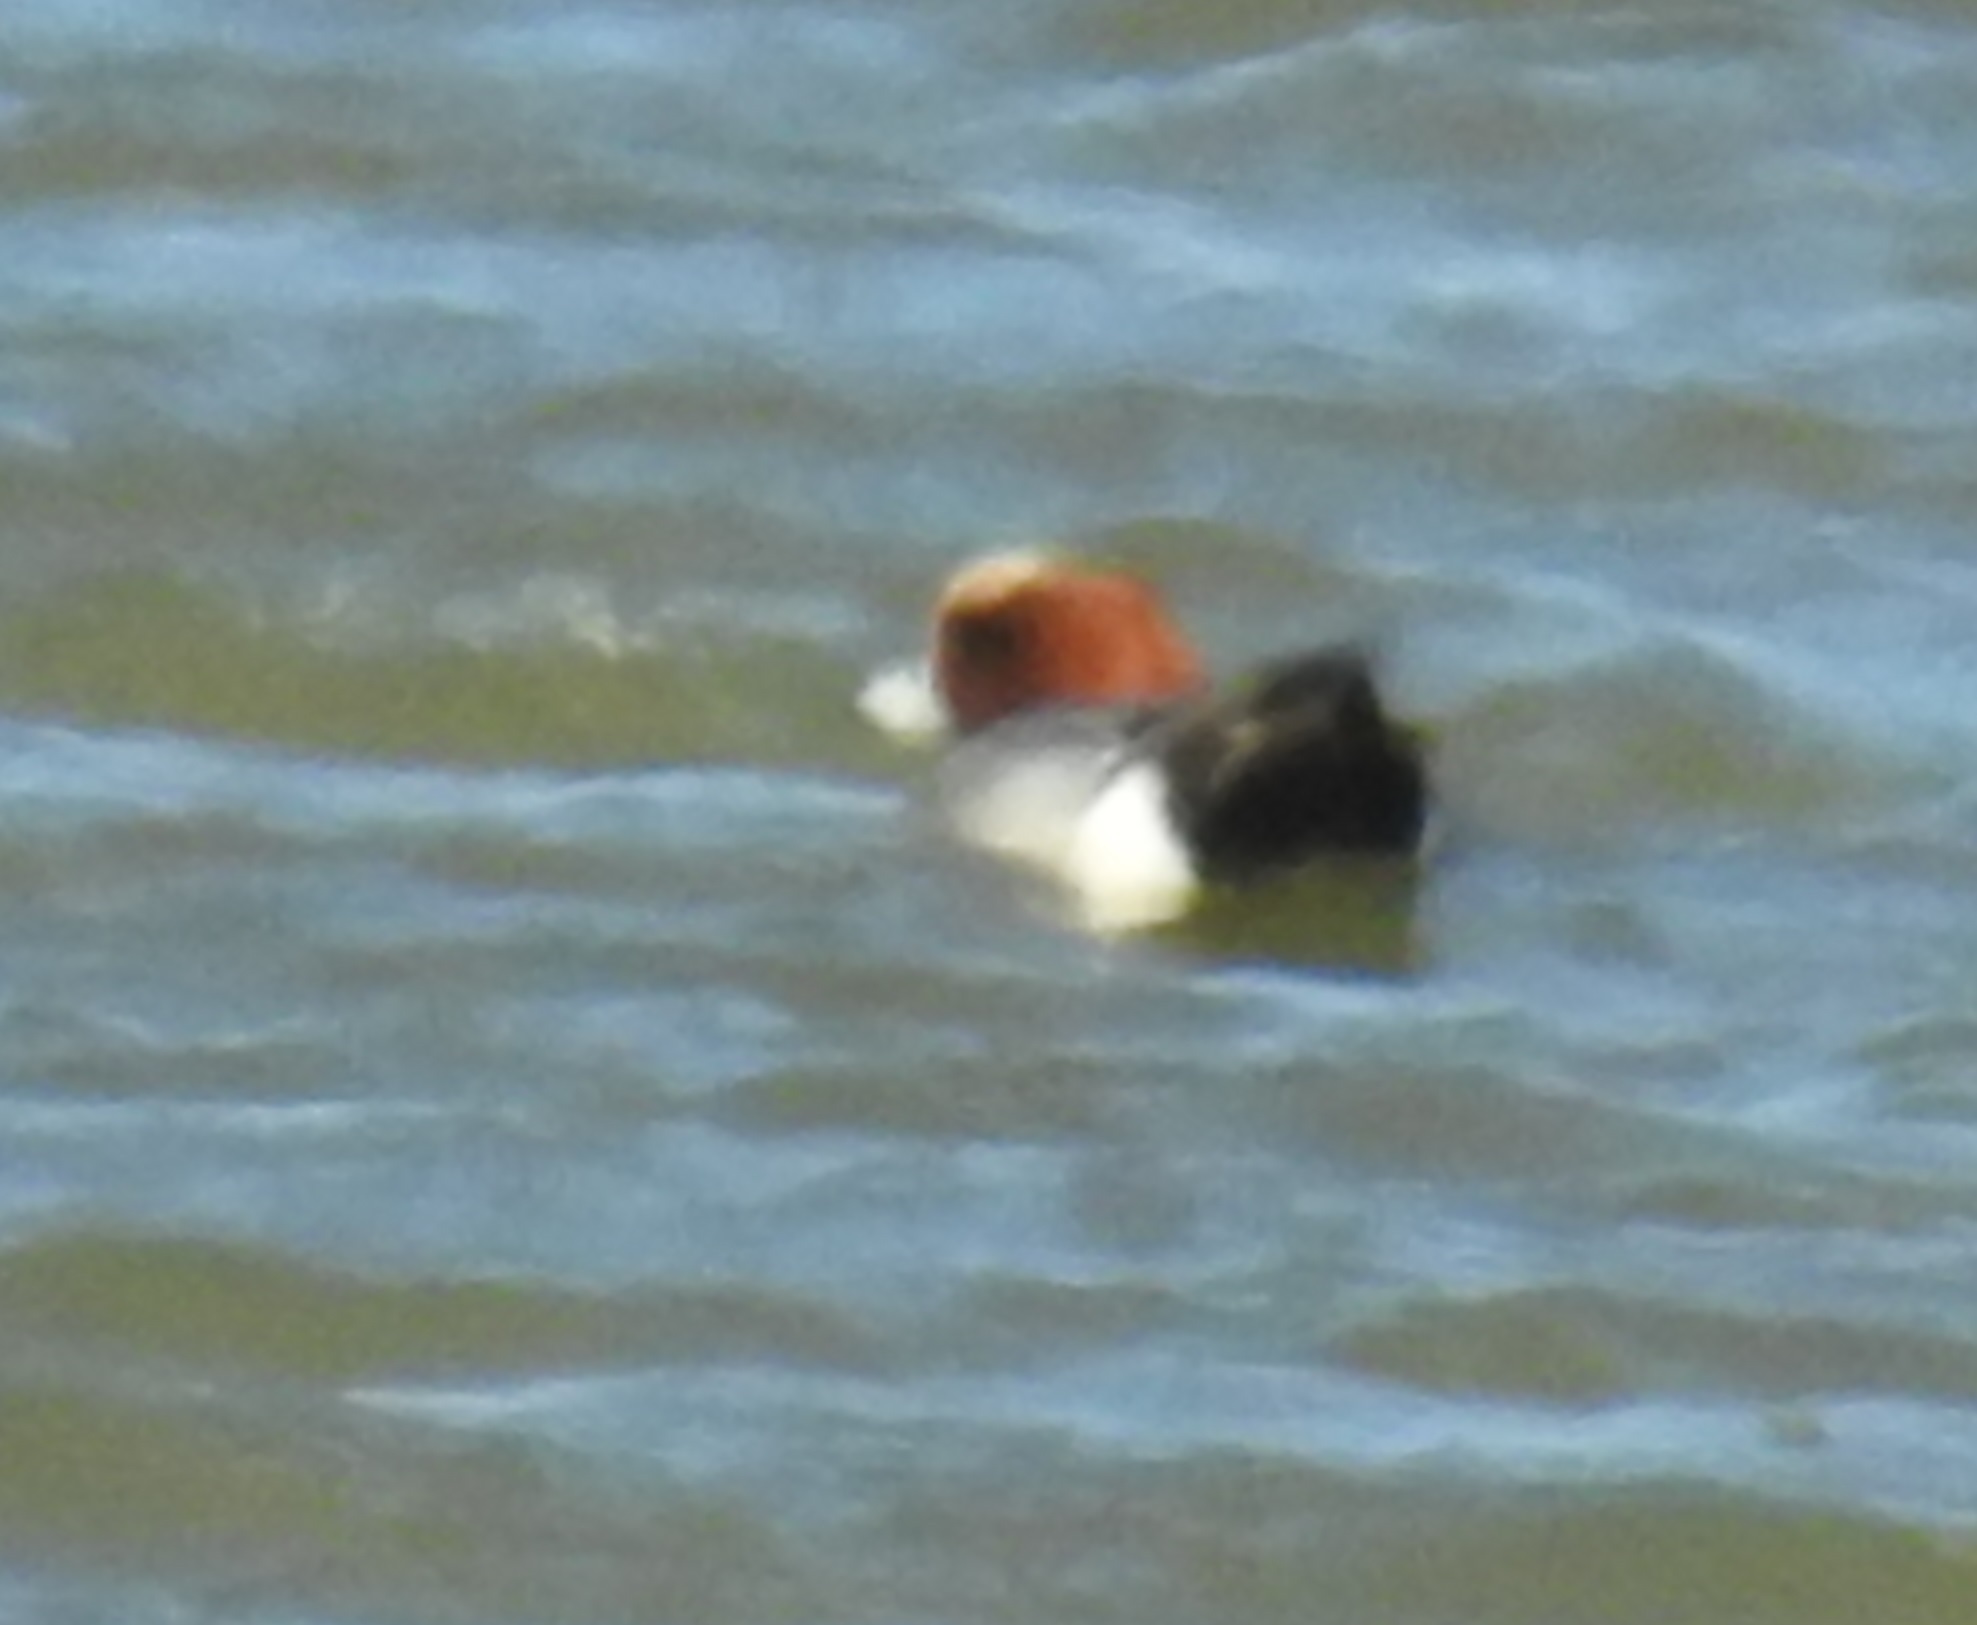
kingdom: Animalia
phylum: Chordata
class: Aves
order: Anseriformes
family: Anatidae
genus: Mareca
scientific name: Mareca penelope
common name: Eurasian wigeon
